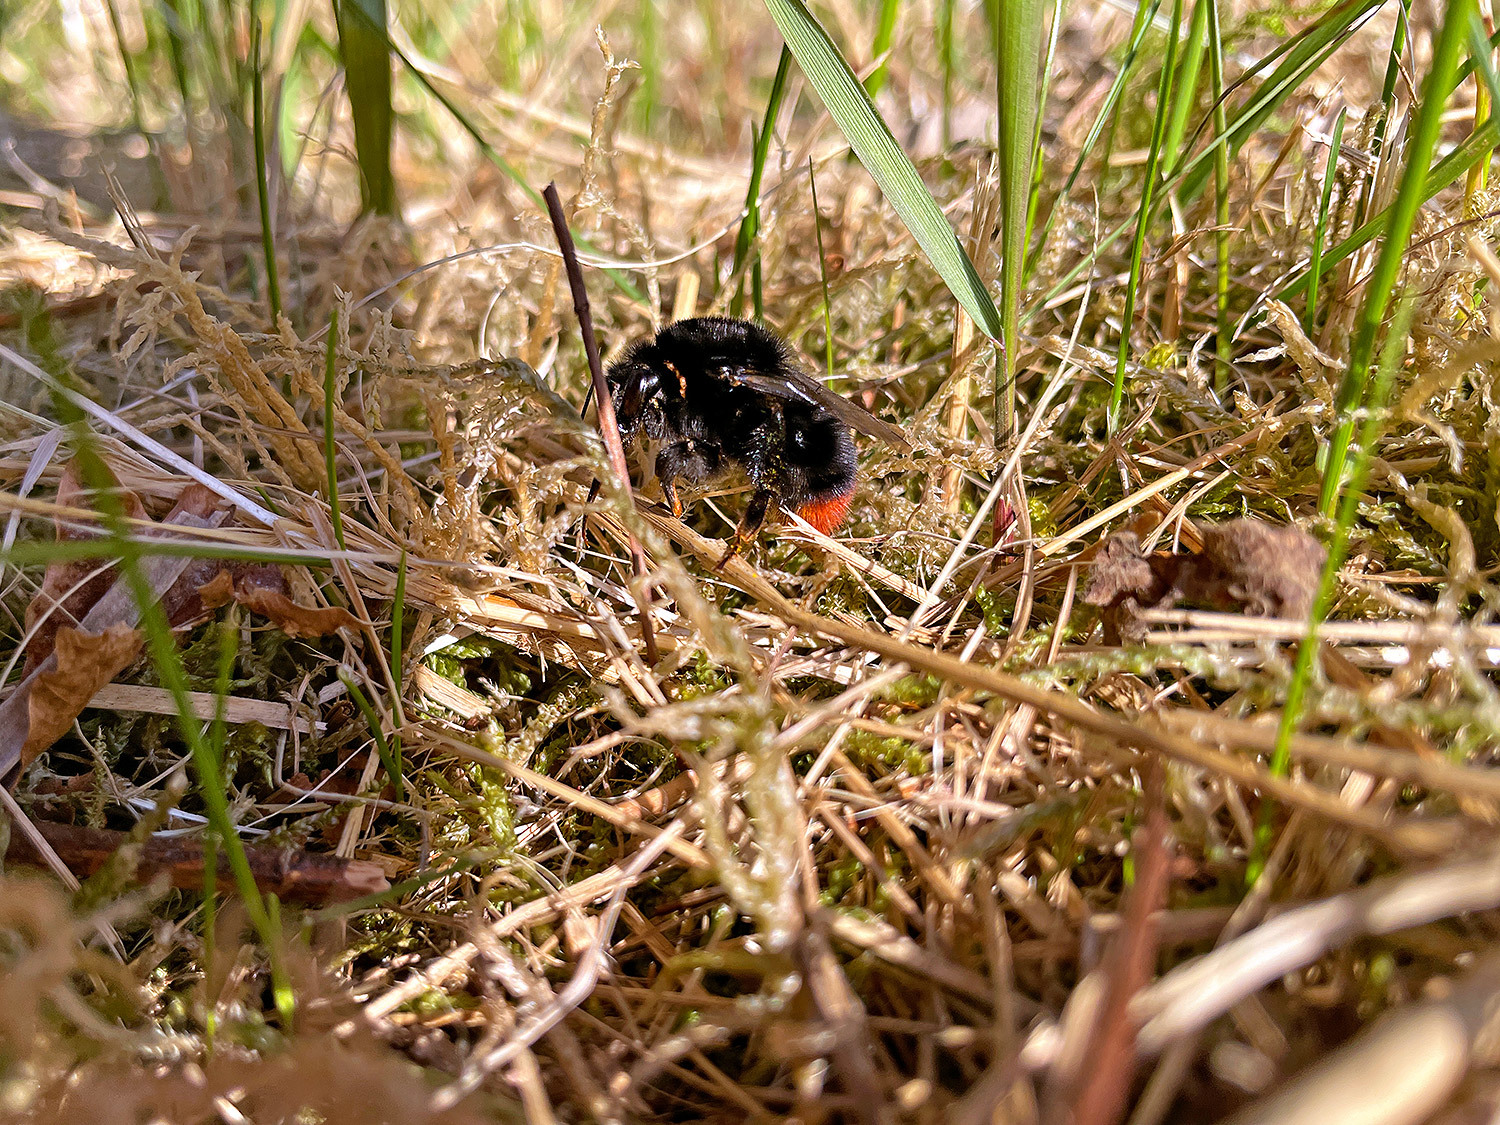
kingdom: Animalia
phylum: Arthropoda
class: Insecta
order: Hymenoptera
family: Apidae
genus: Bombus
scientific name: Bombus lapidarius
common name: Large red-tailed humble-bee
